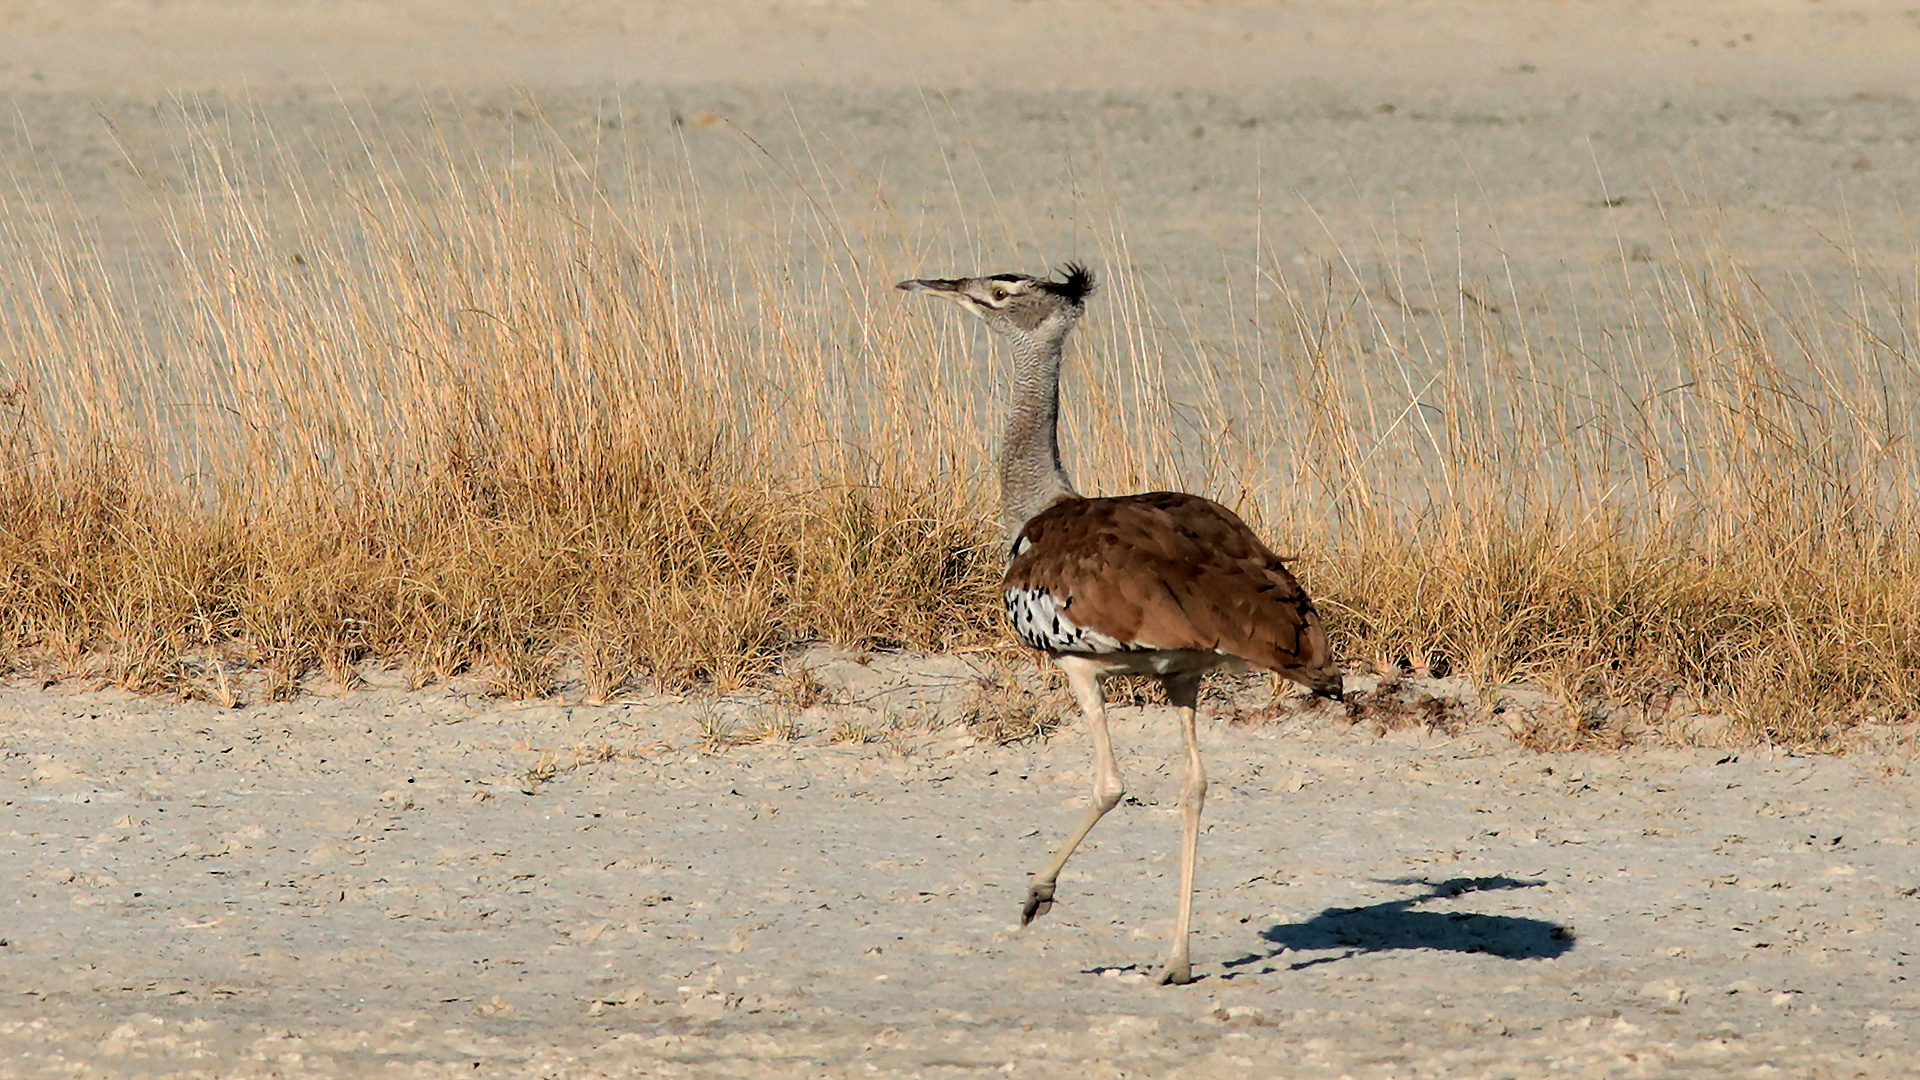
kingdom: Animalia
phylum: Chordata
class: Aves
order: Otidiformes
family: Otididae
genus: Ardeotis
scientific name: Ardeotis kori
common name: Kori bustard
